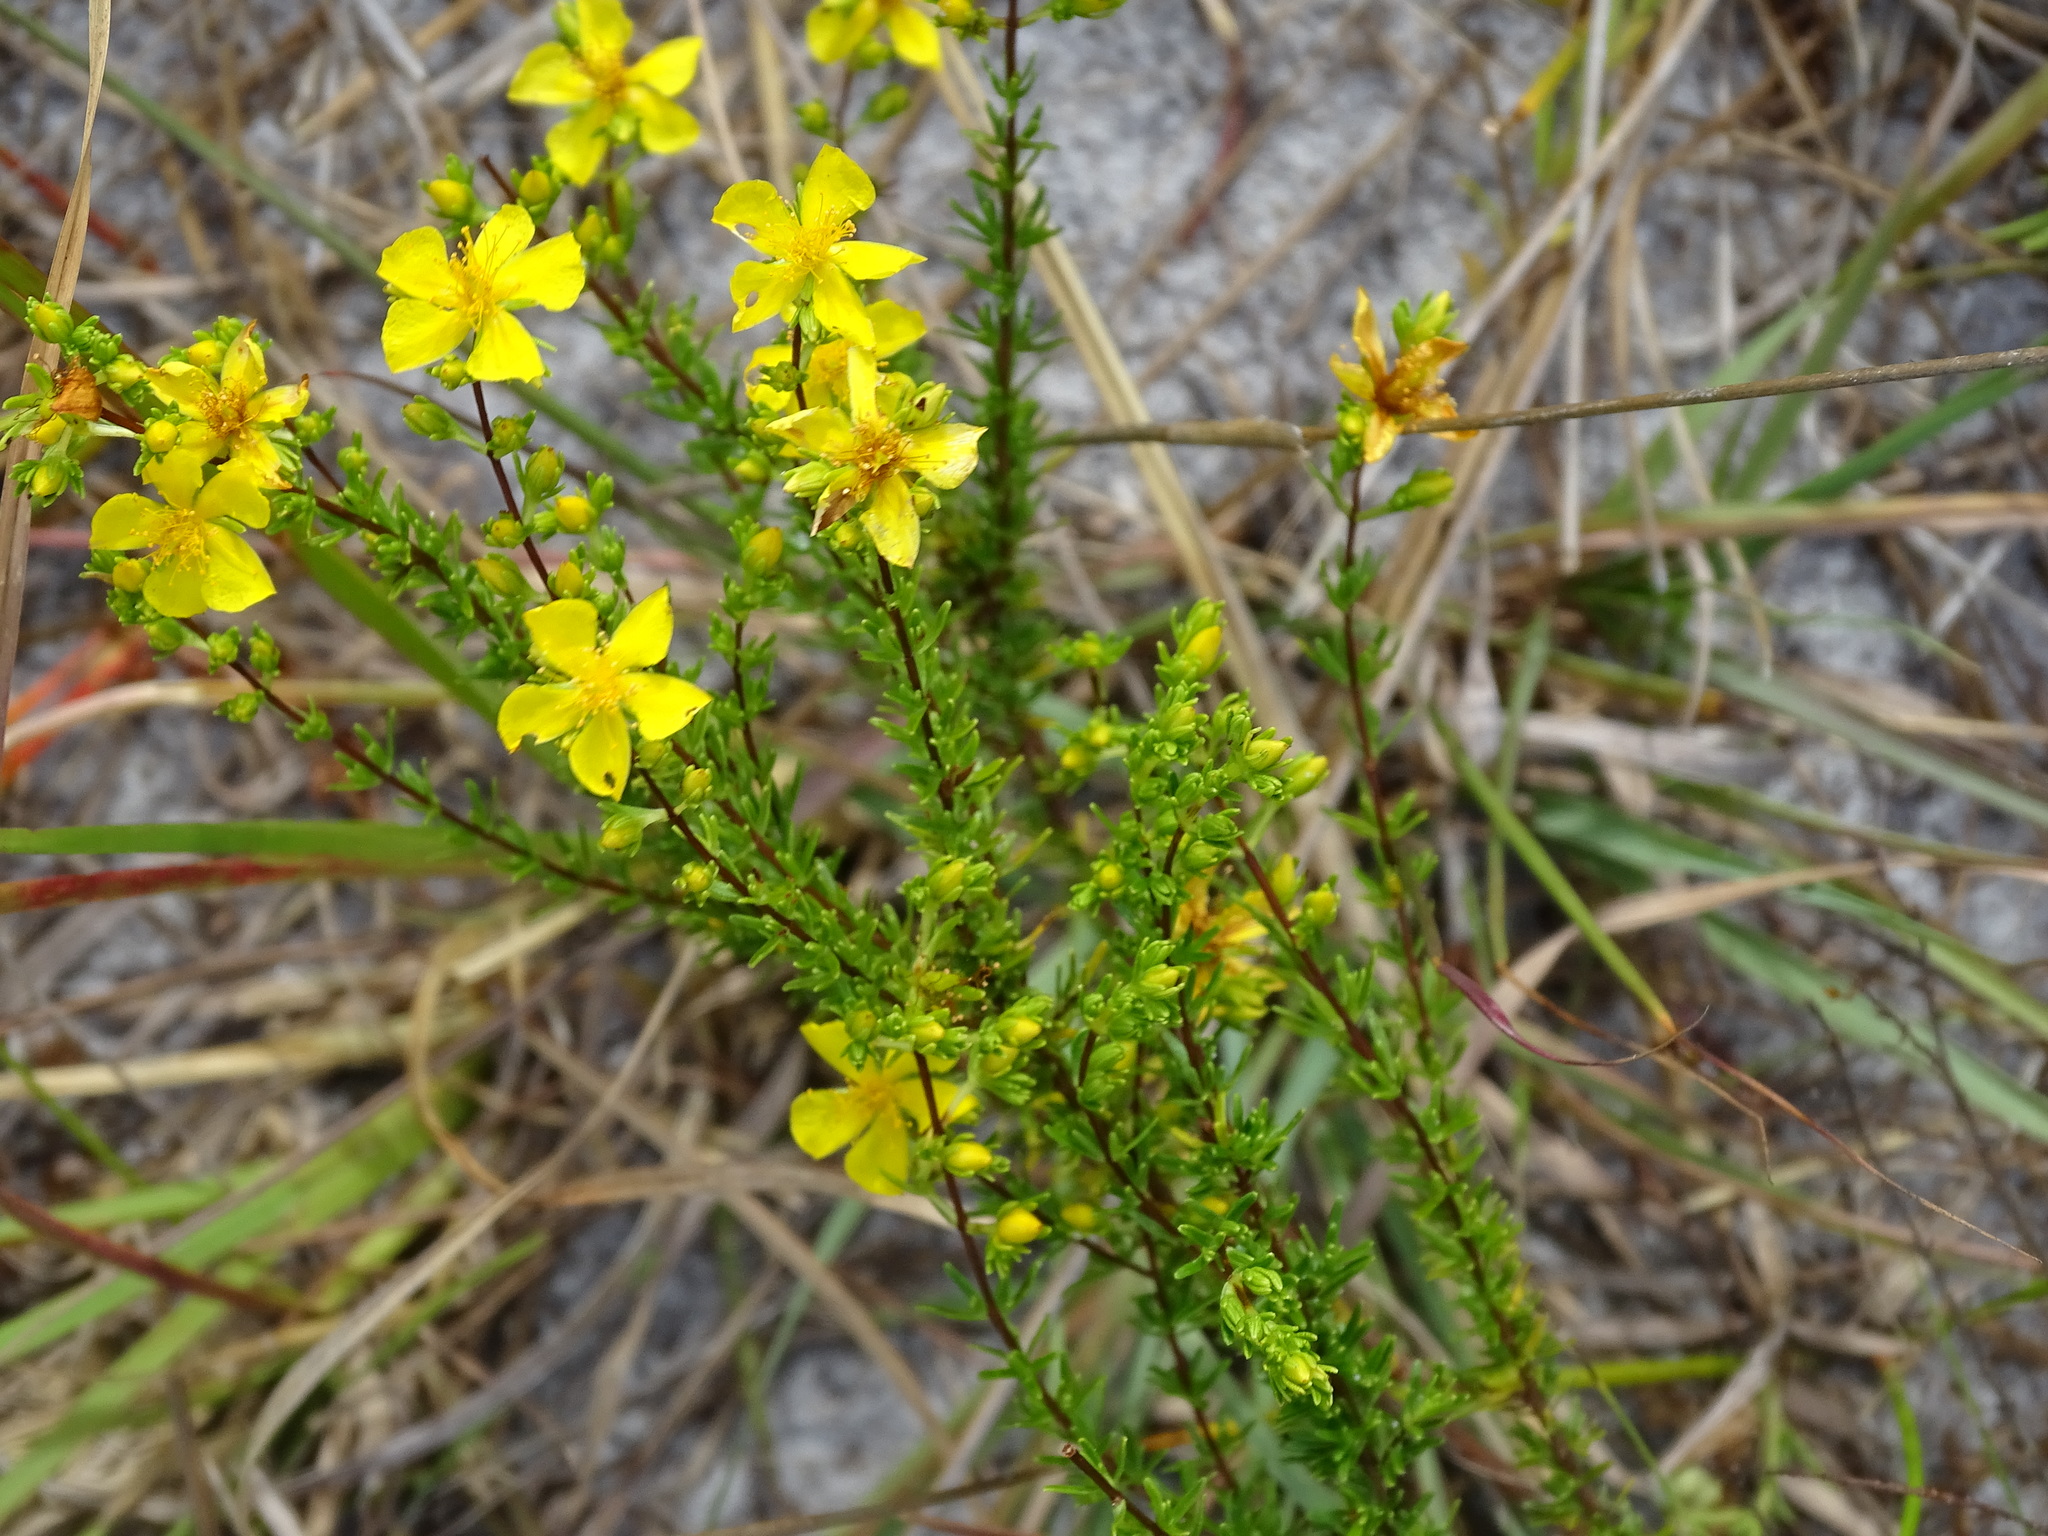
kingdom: Plantae
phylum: Tracheophyta
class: Magnoliopsida
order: Malpighiales
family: Hypericaceae
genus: Hypericum
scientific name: Hypericum tenuifolium
